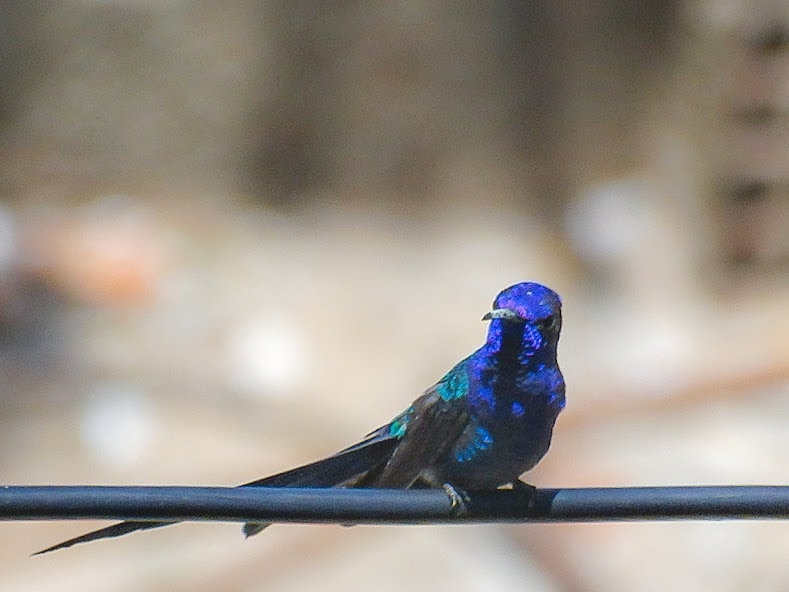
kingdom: Animalia
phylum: Chordata
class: Aves
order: Apodiformes
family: Trochilidae
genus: Eupetomena
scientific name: Eupetomena macroura
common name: Swallow-tailed hummingbird
